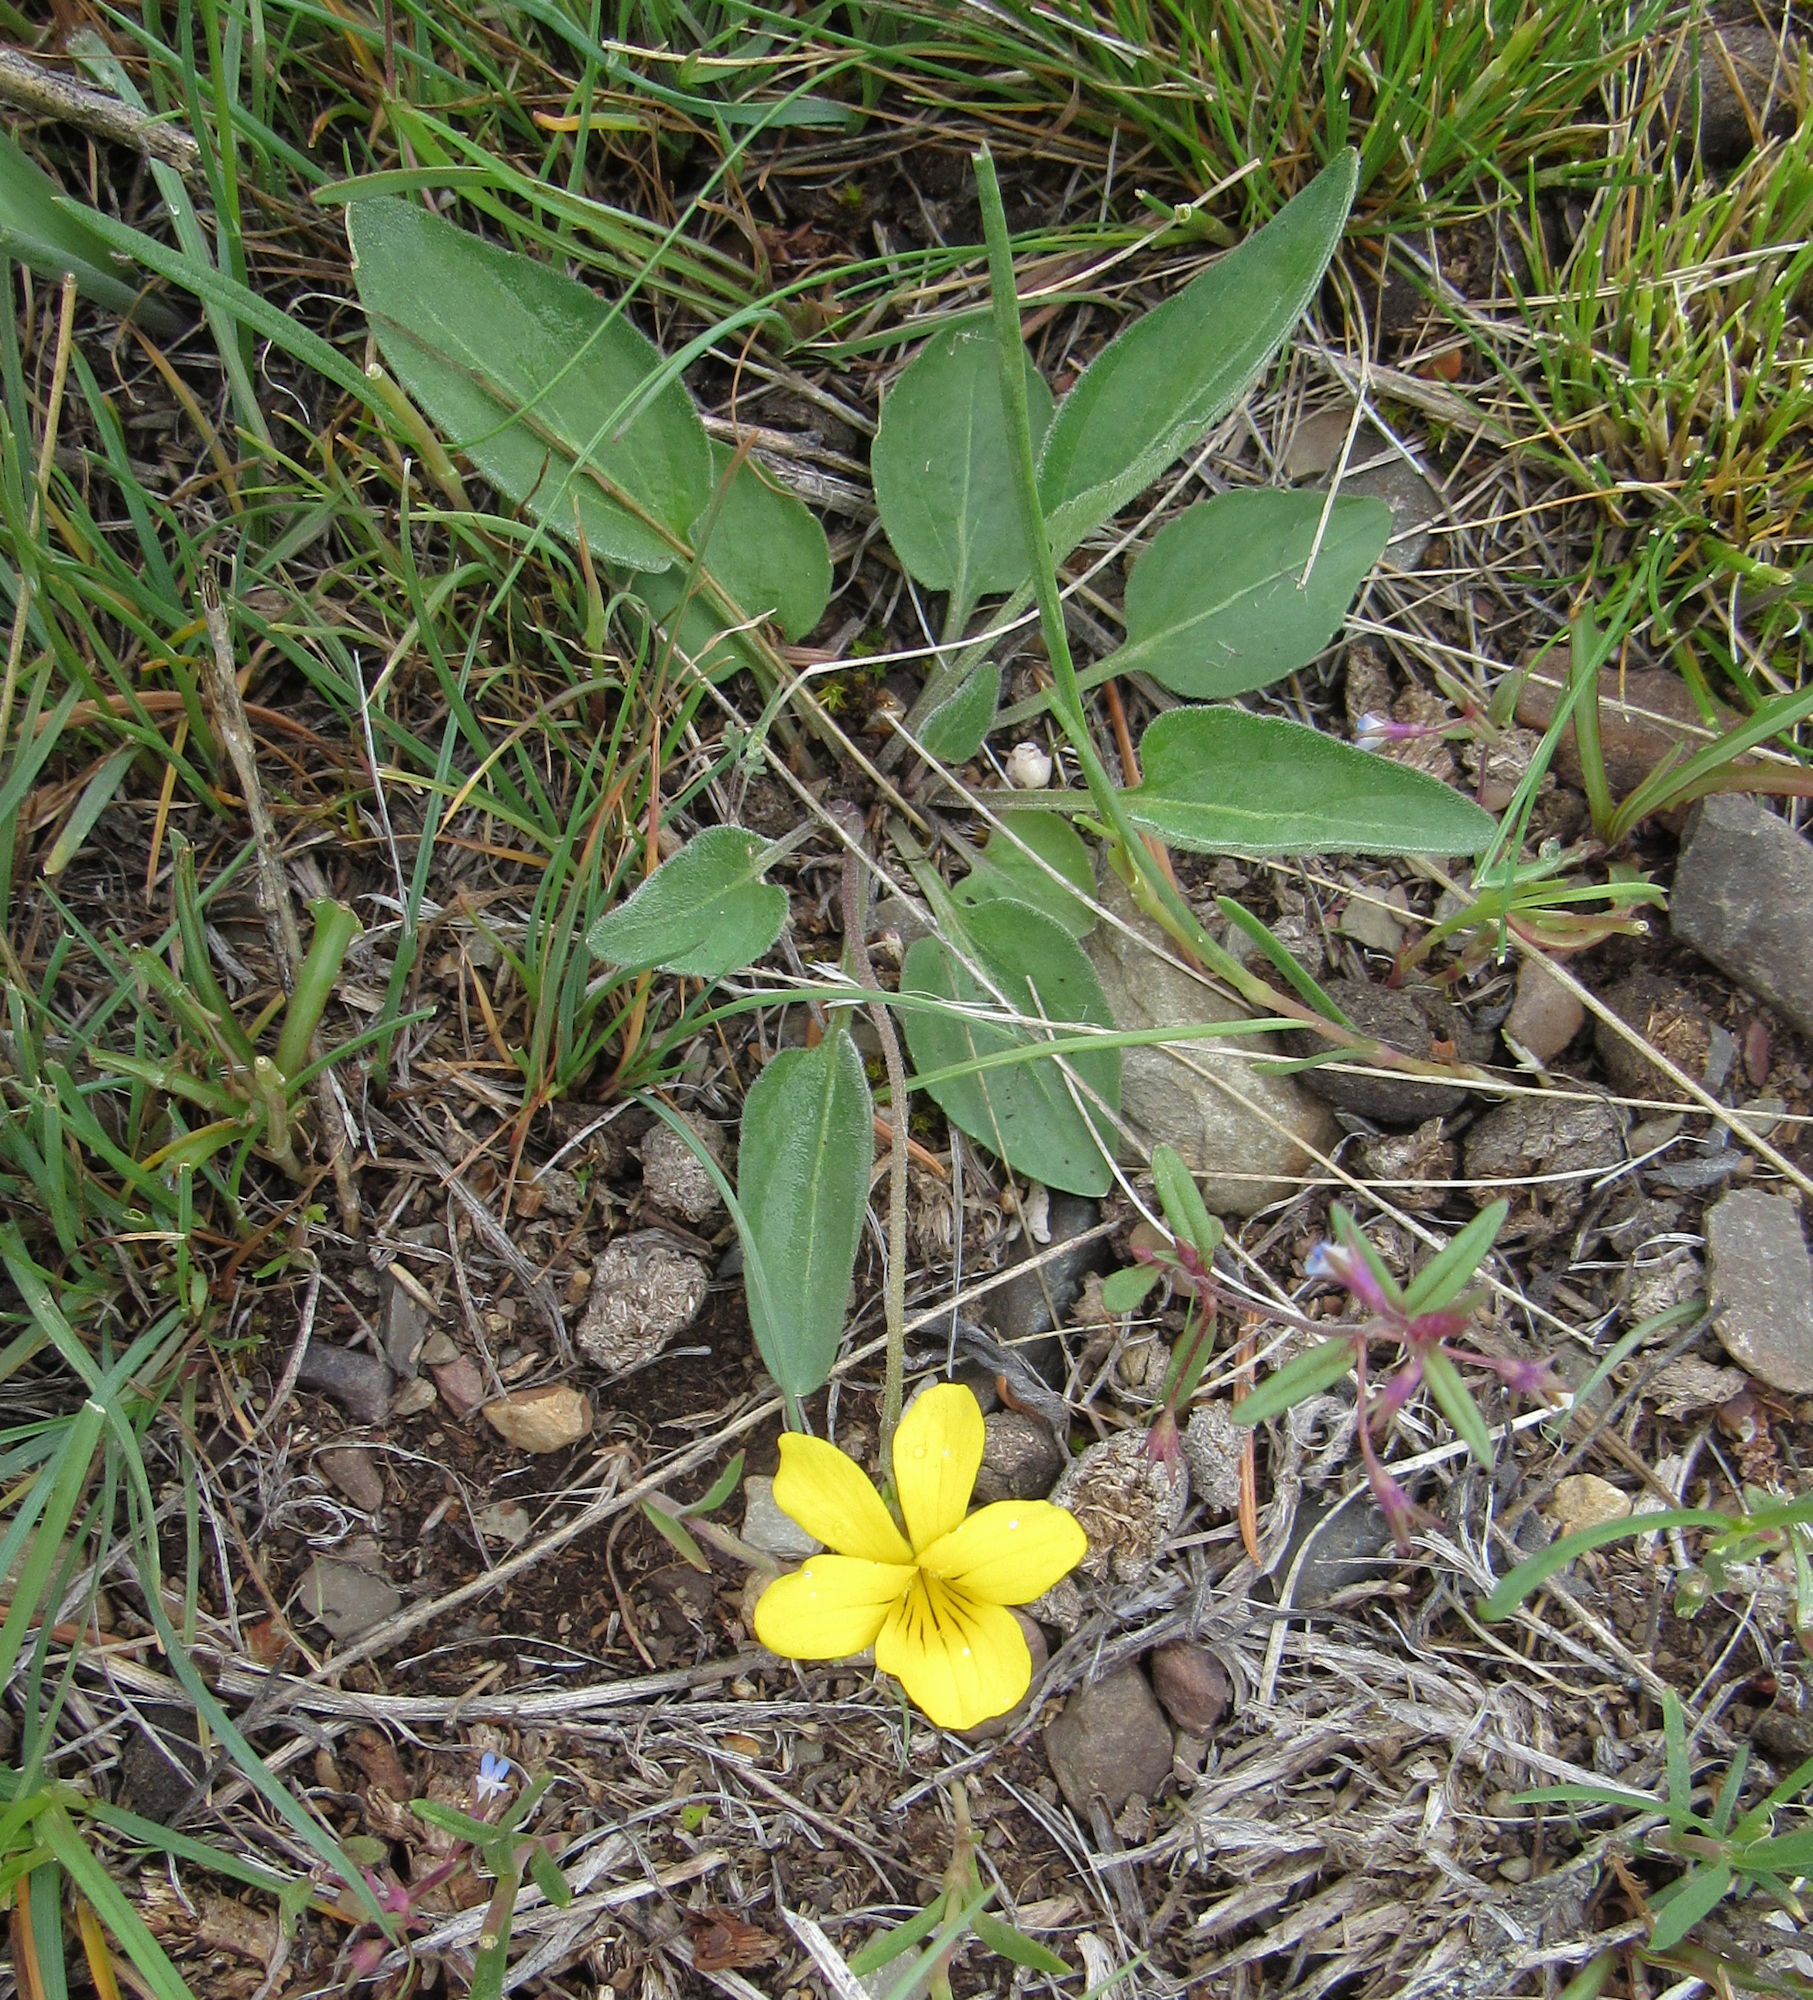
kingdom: Plantae
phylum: Tracheophyta
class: Magnoliopsida
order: Malpighiales
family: Violaceae
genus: Viola
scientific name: Viola vallicola
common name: Valley violet
